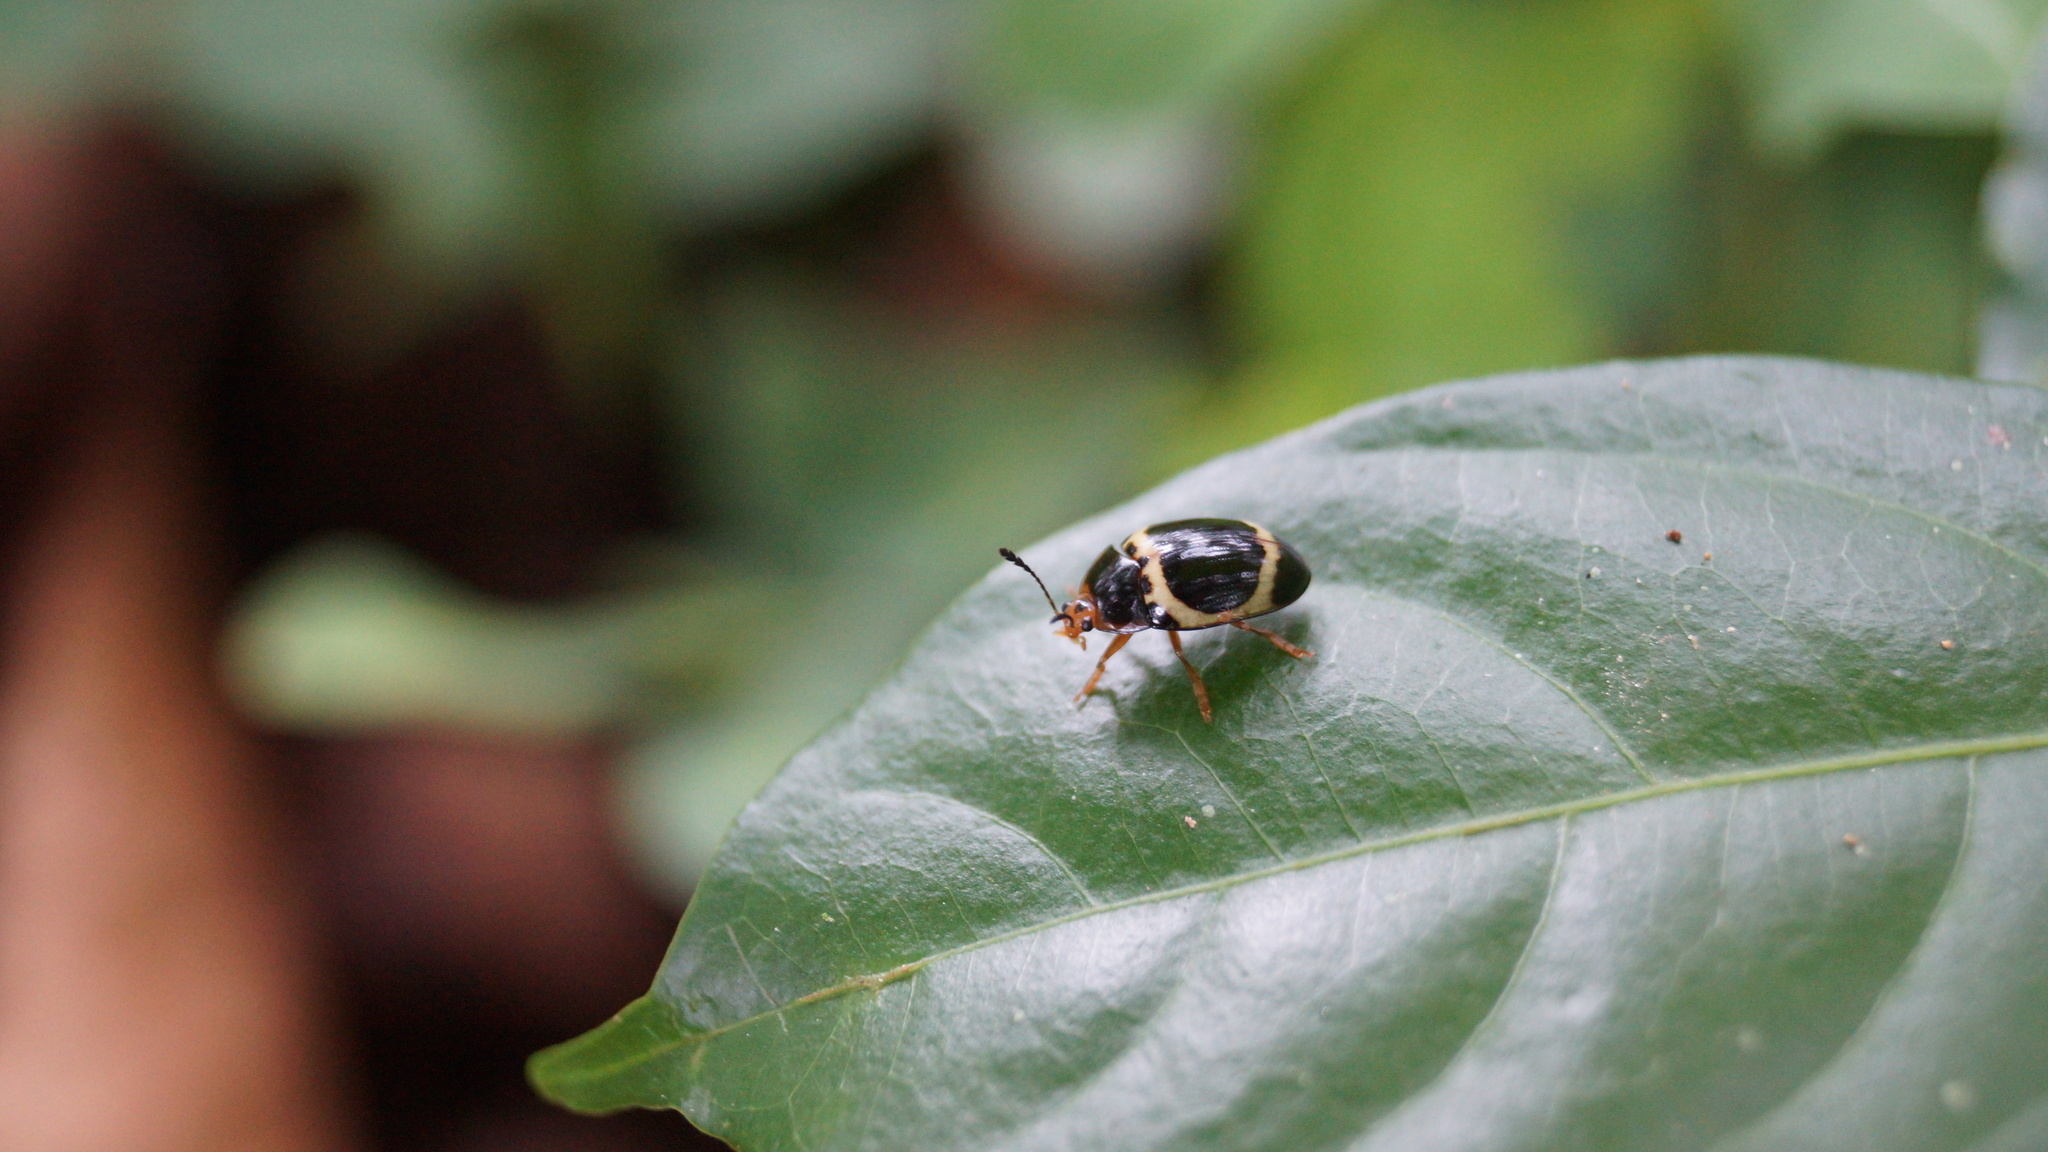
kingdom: Animalia
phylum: Arthropoda
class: Insecta
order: Coleoptera
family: Erotylidae
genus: Iphiclus
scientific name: Iphiclus circulus
